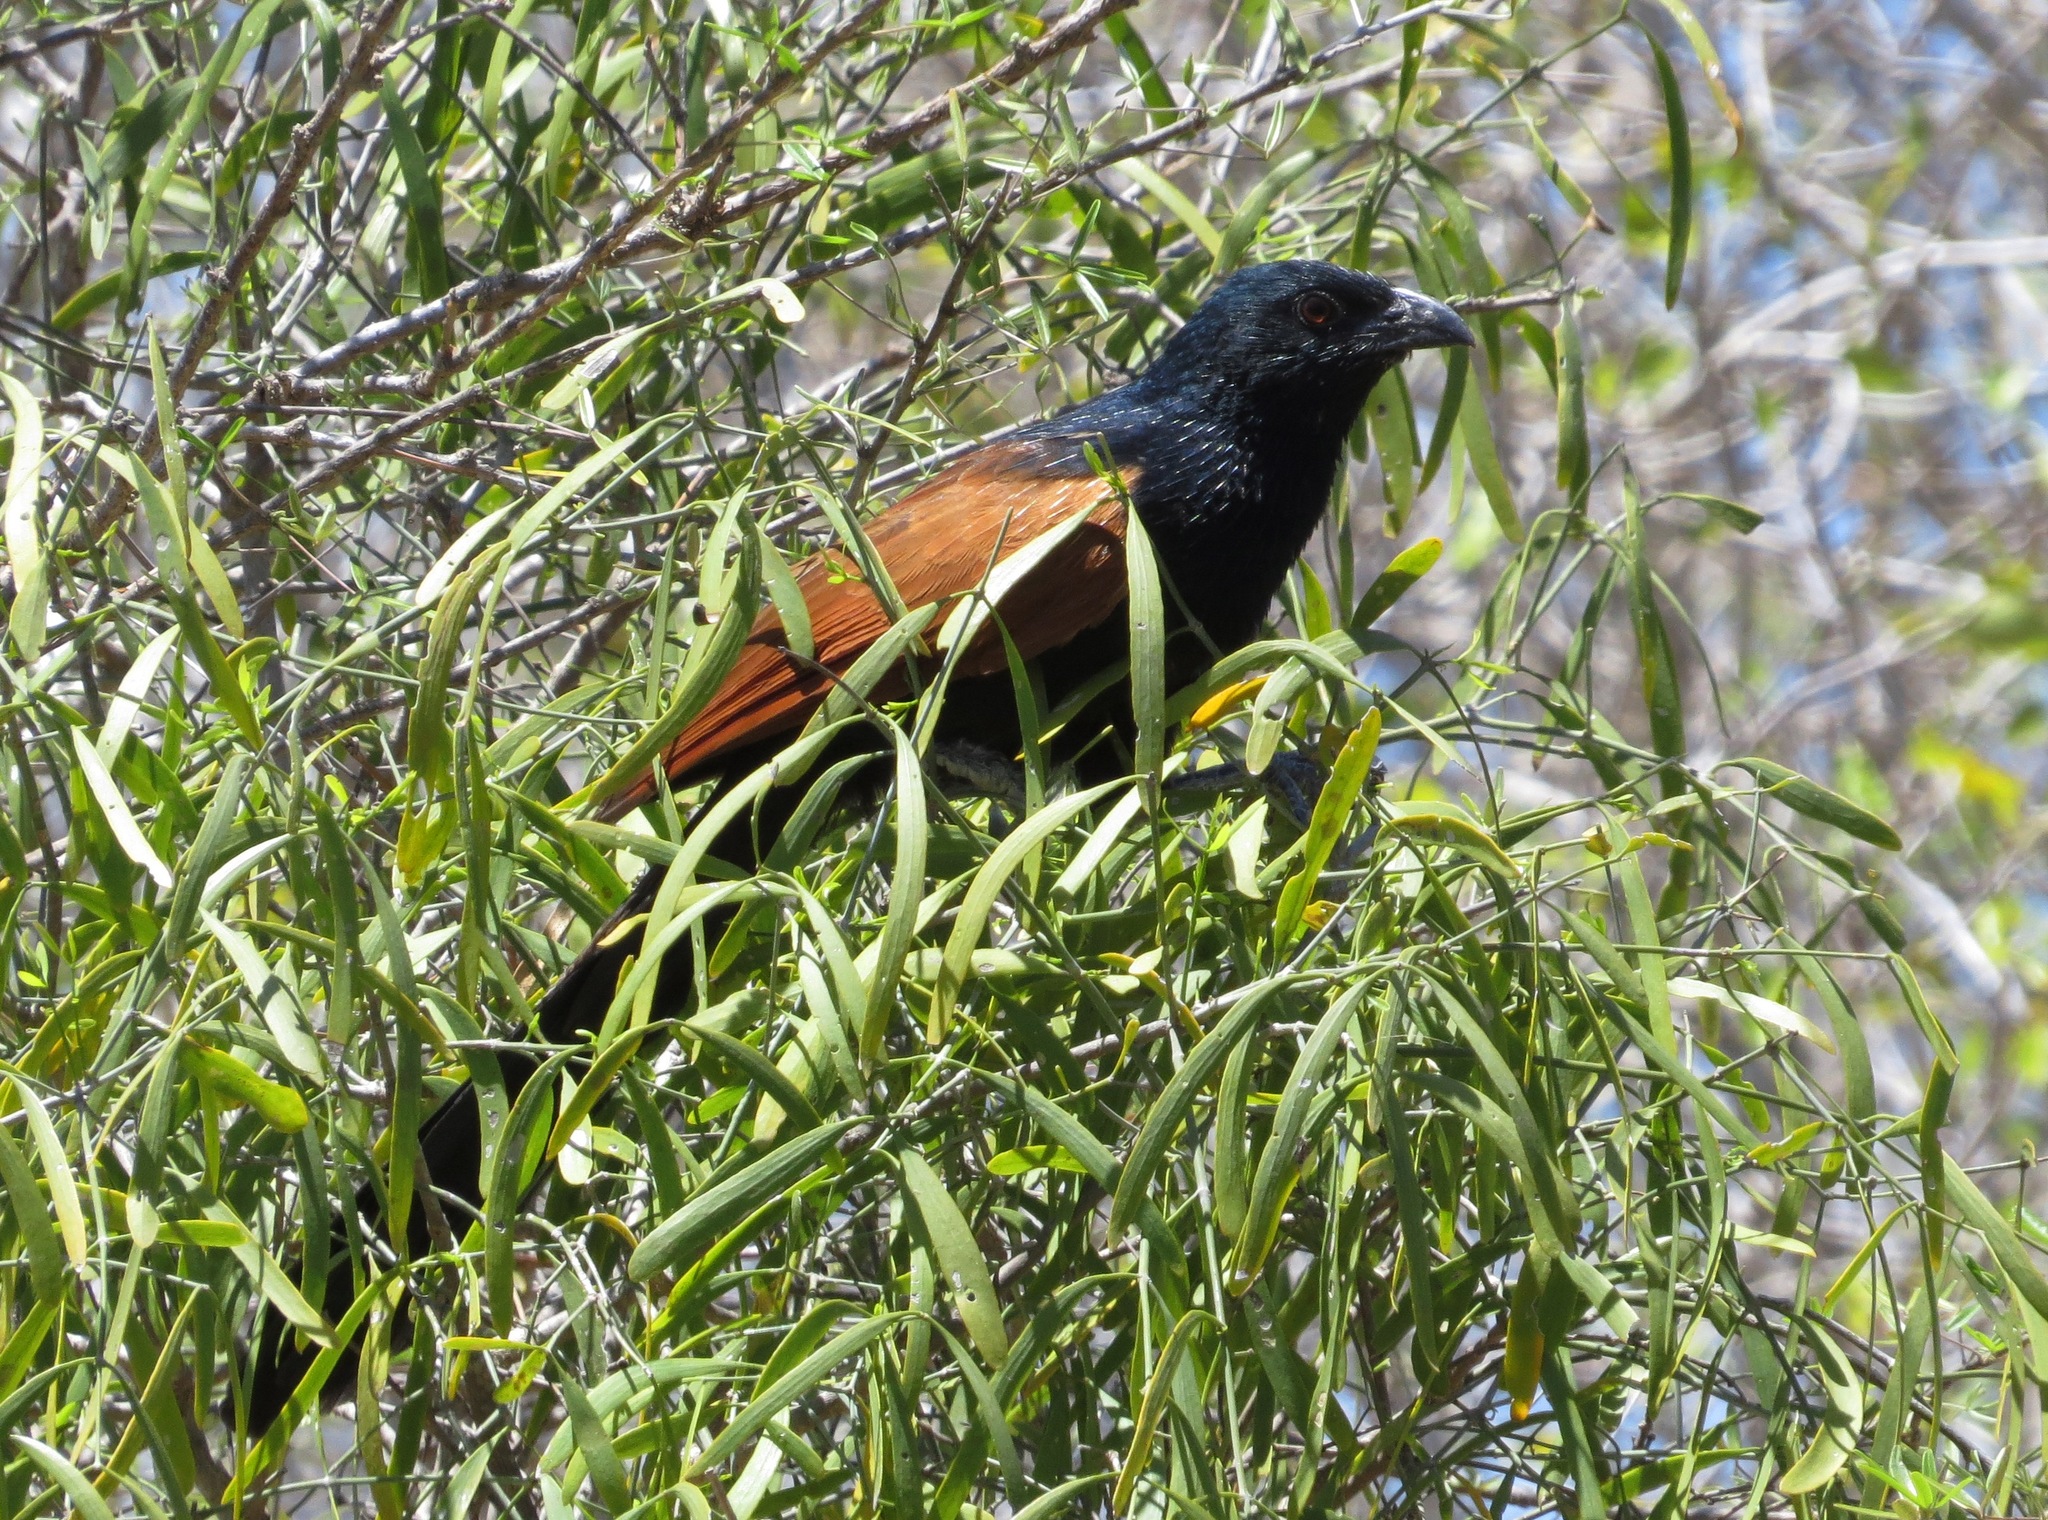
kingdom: Animalia
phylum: Chordata
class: Aves
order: Cuculiformes
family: Cuculidae
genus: Centropus
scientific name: Centropus toulou
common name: Malagasy coucal
